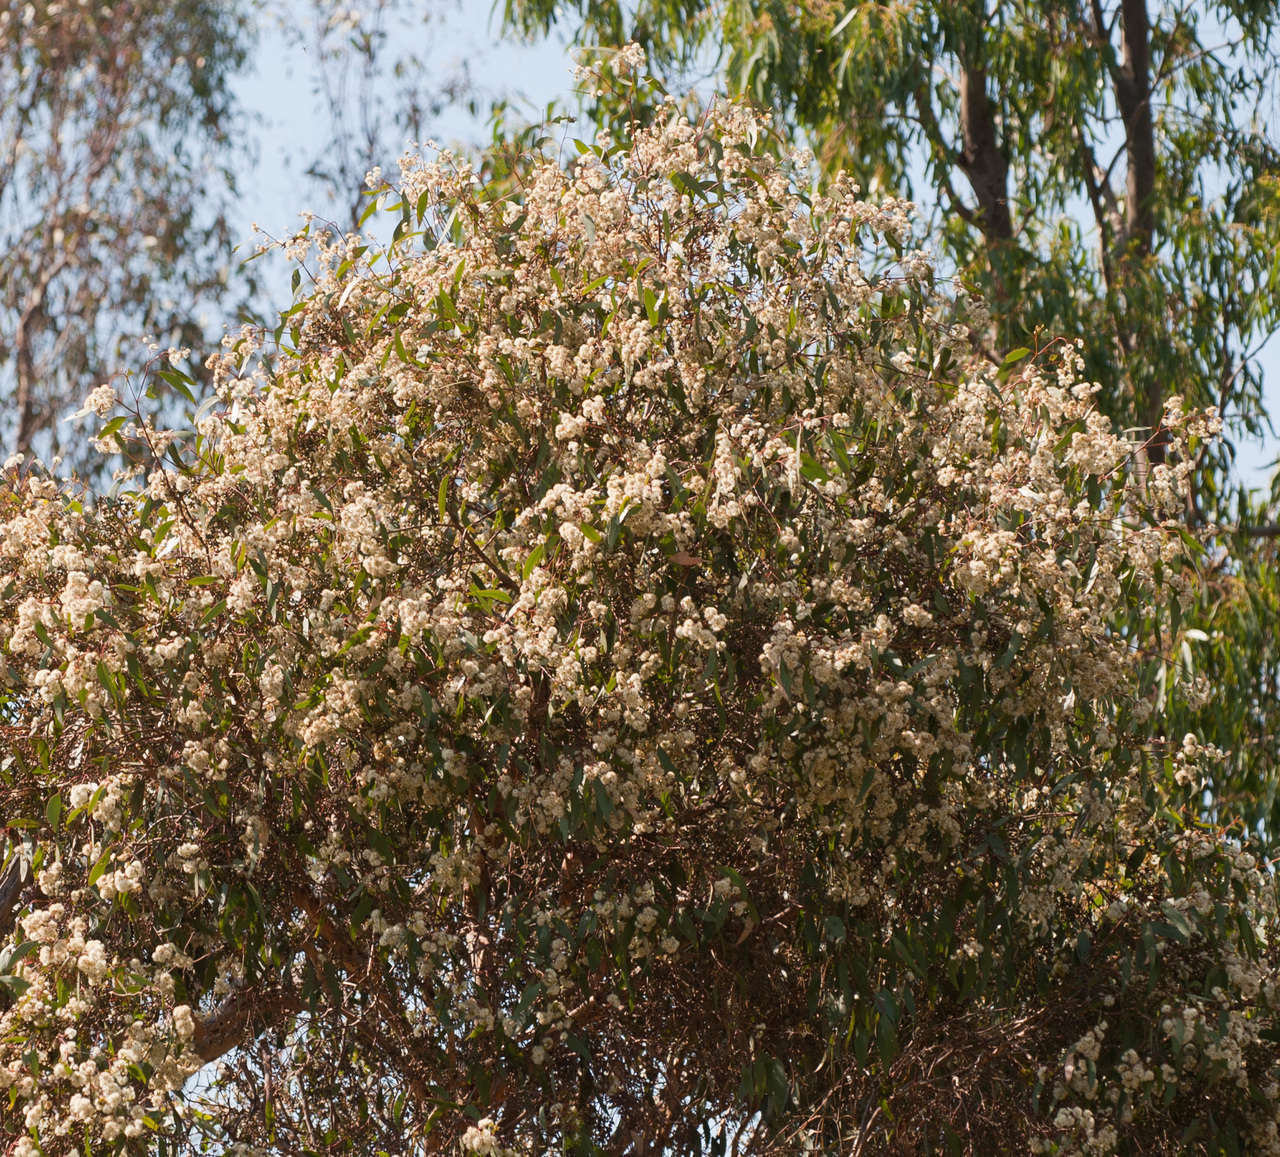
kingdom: Plantae
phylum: Tracheophyta
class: Magnoliopsida
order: Myrtales
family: Myrtaceae
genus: Eucalyptus
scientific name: Eucalyptus microcarpa
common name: Grey-box
